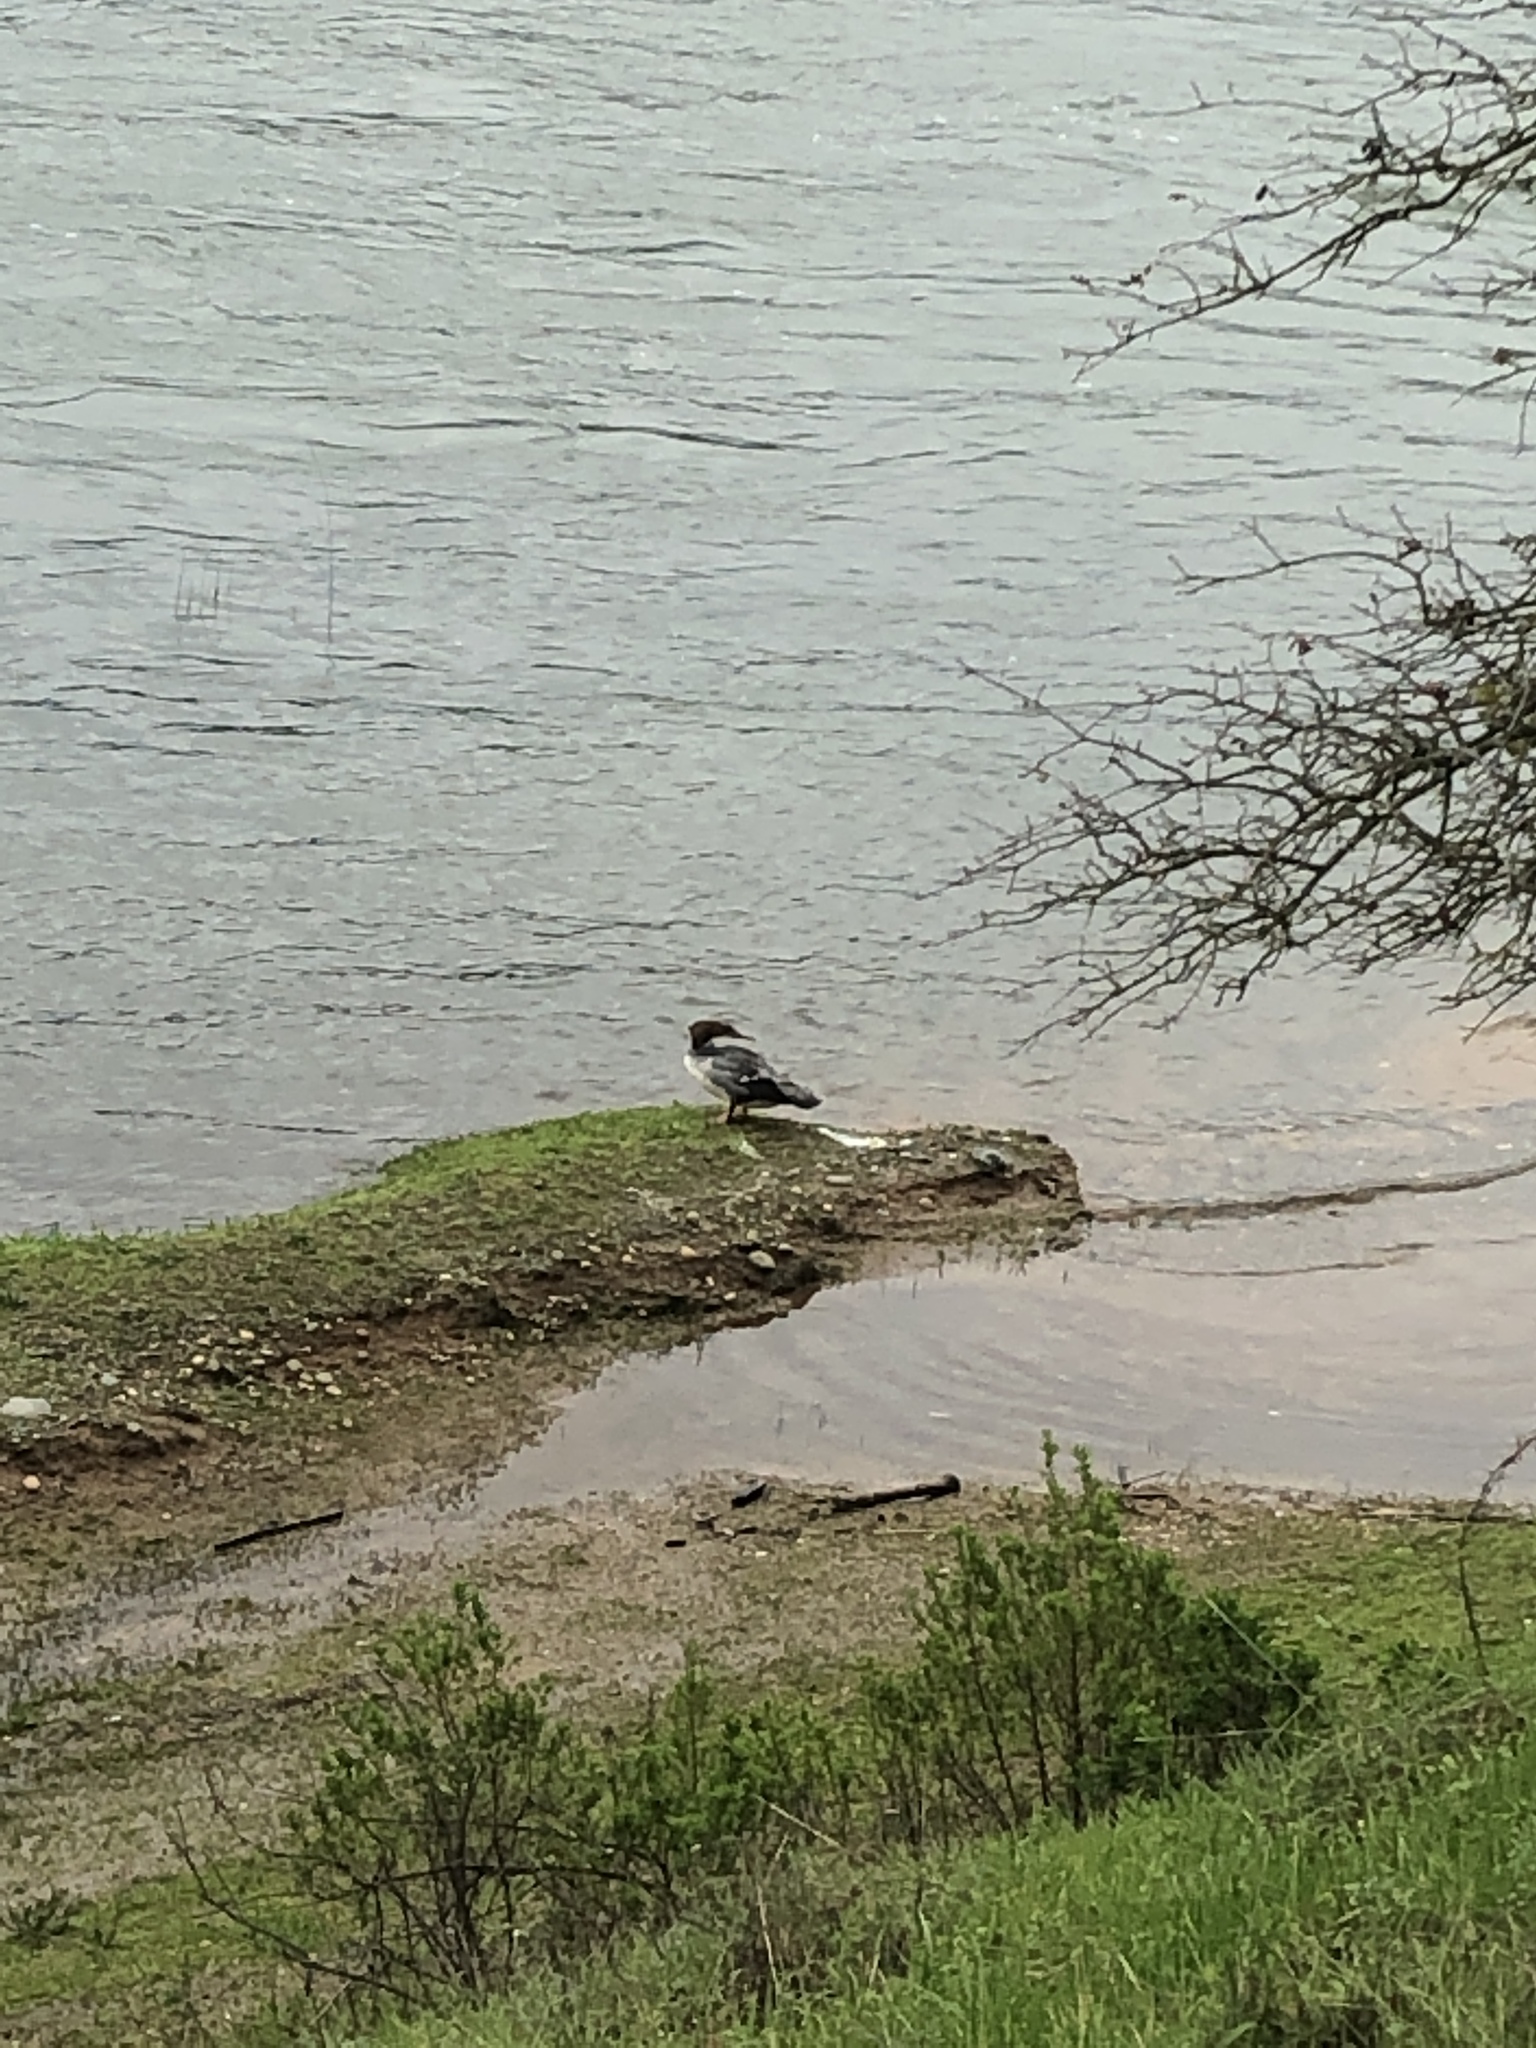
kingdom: Animalia
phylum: Chordata
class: Aves
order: Anseriformes
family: Anatidae
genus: Mergus
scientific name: Mergus merganser
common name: Common merganser
